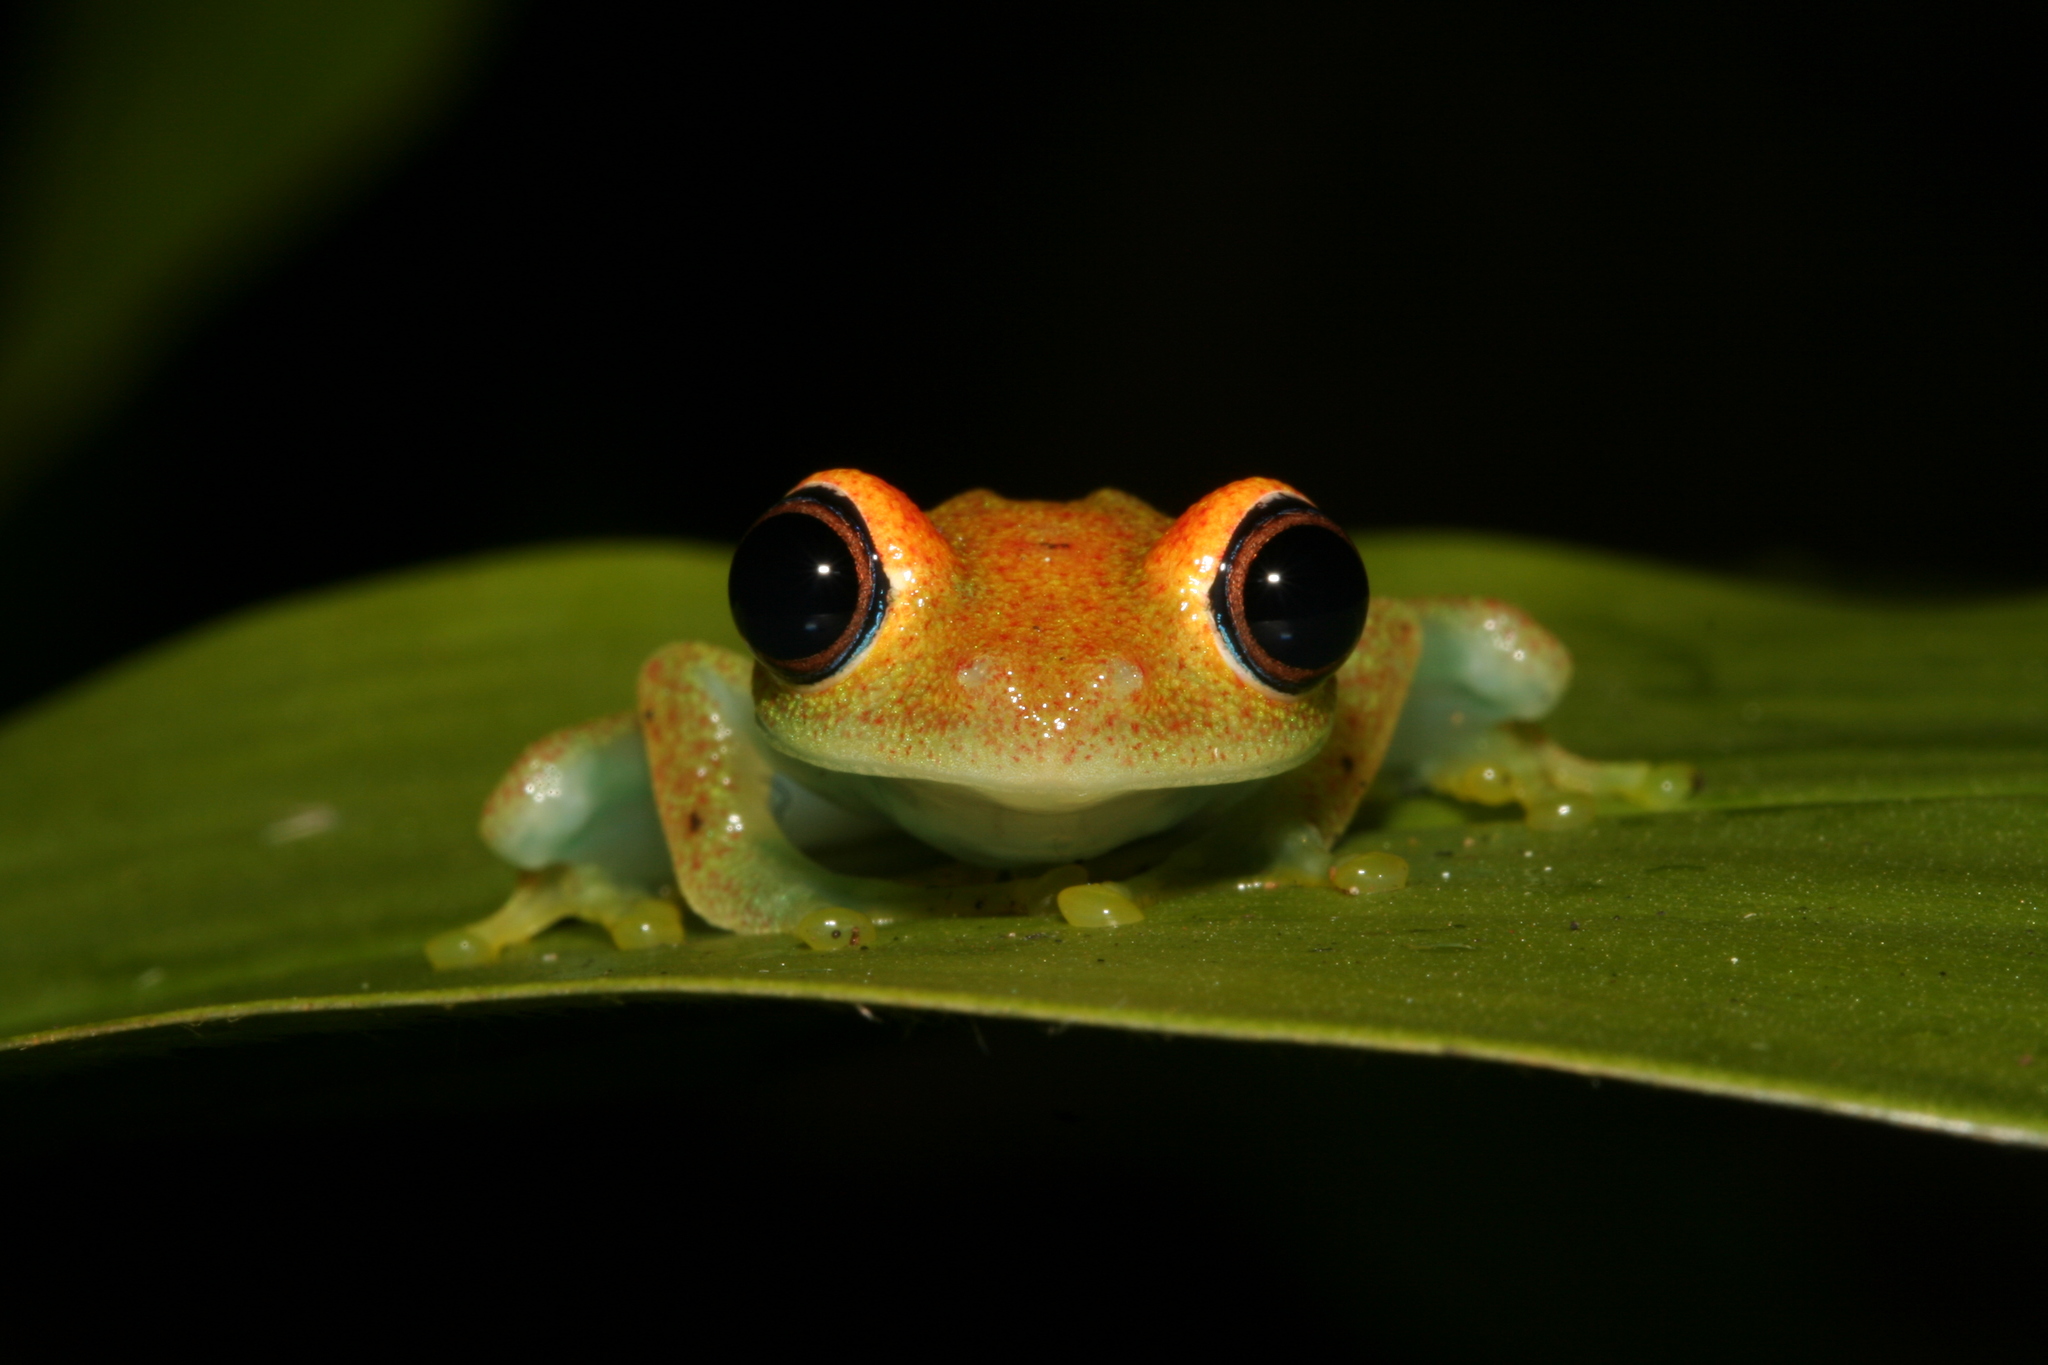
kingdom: Animalia
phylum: Chordata
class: Amphibia
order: Anura
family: Mantellidae
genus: Boophis
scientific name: Boophis viridis
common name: Green bright-eyed frog
